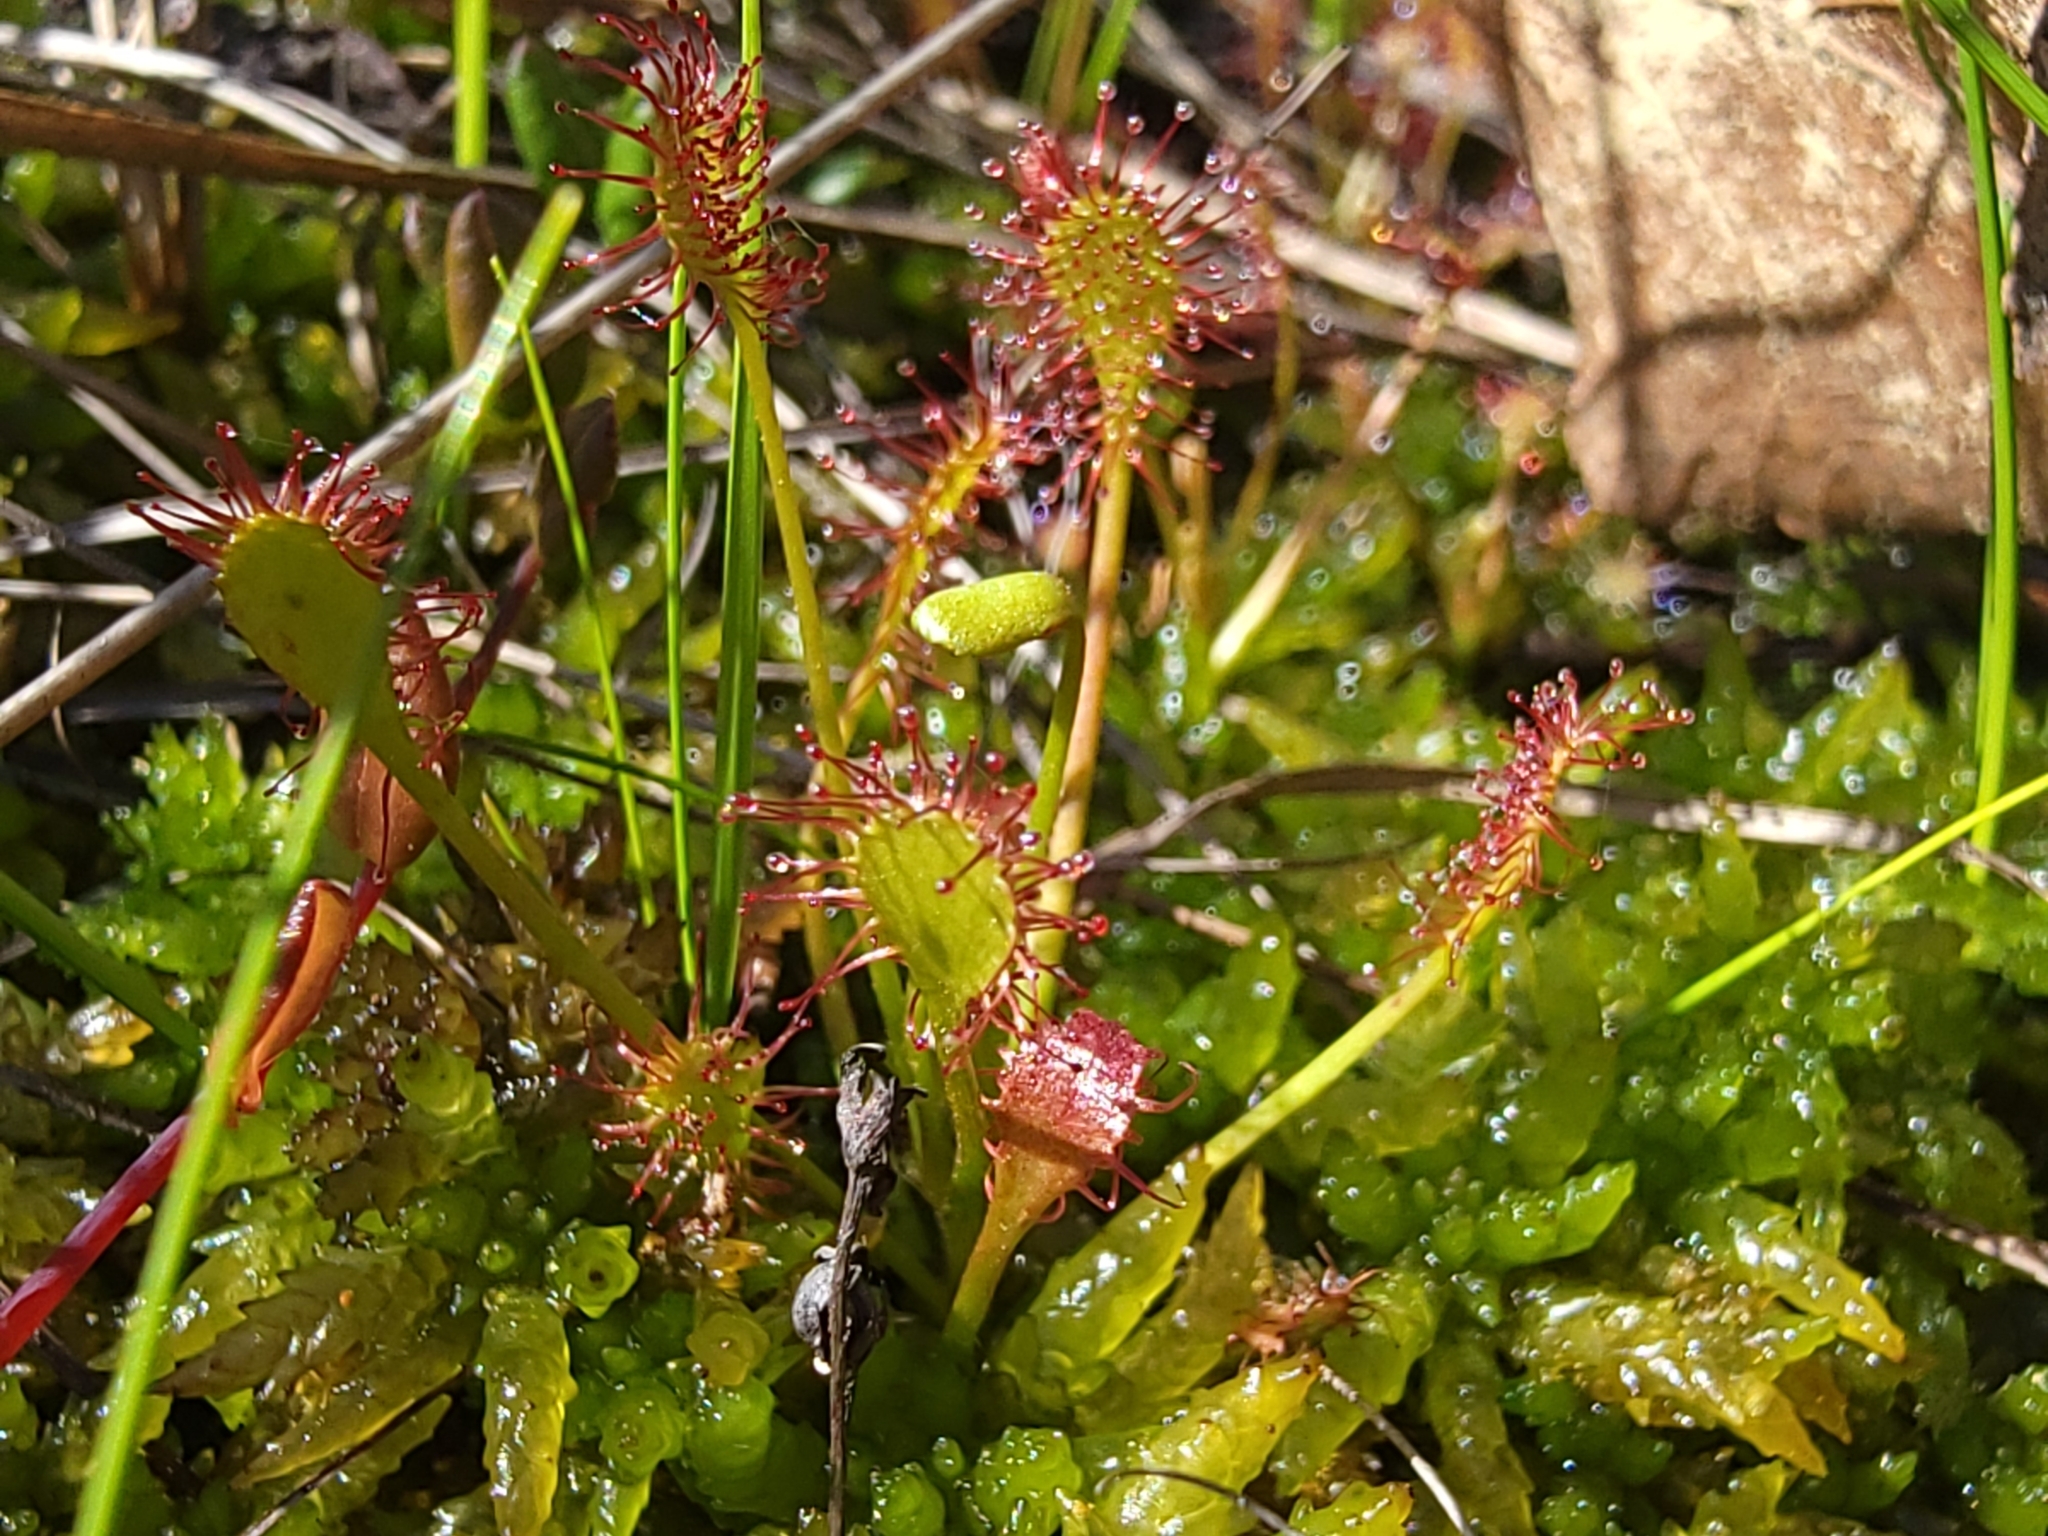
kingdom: Plantae
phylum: Tracheophyta
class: Magnoliopsida
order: Caryophyllales
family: Droseraceae
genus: Drosera
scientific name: Drosera intermedia
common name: Oblong-leaved sundew
